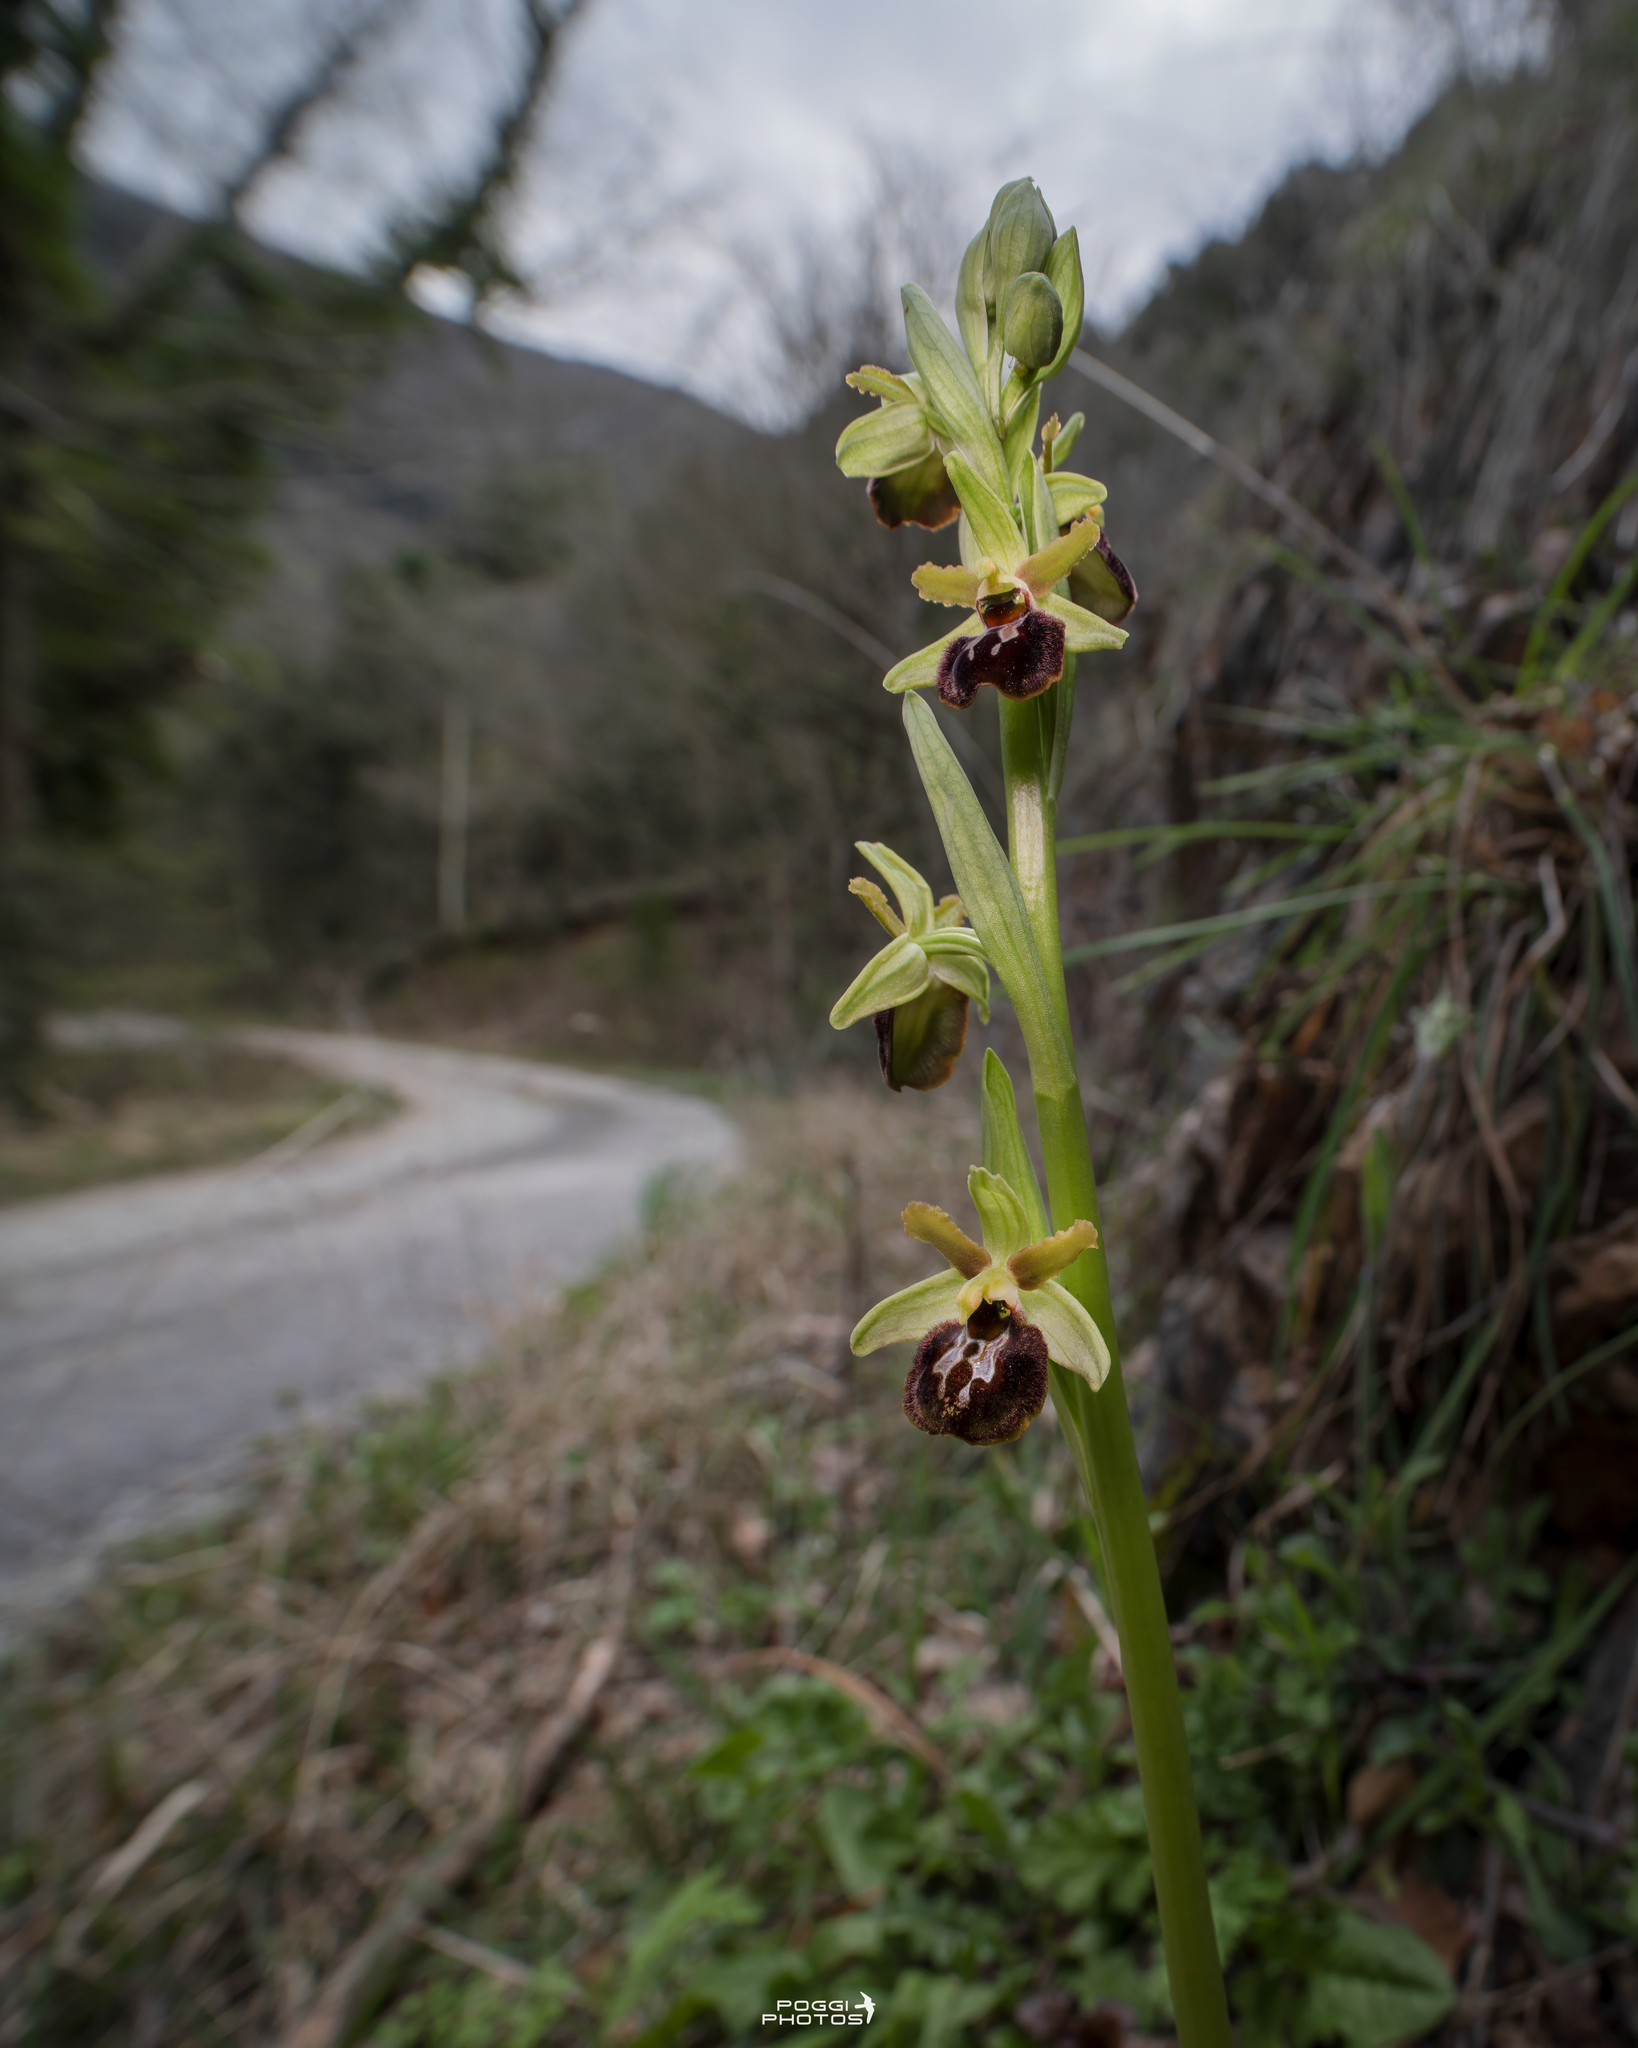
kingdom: Plantae
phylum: Tracheophyta
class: Liliopsida
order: Asparagales
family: Orchidaceae
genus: Ophrys
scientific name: Ophrys sphegodes
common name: Early spider-orchid
